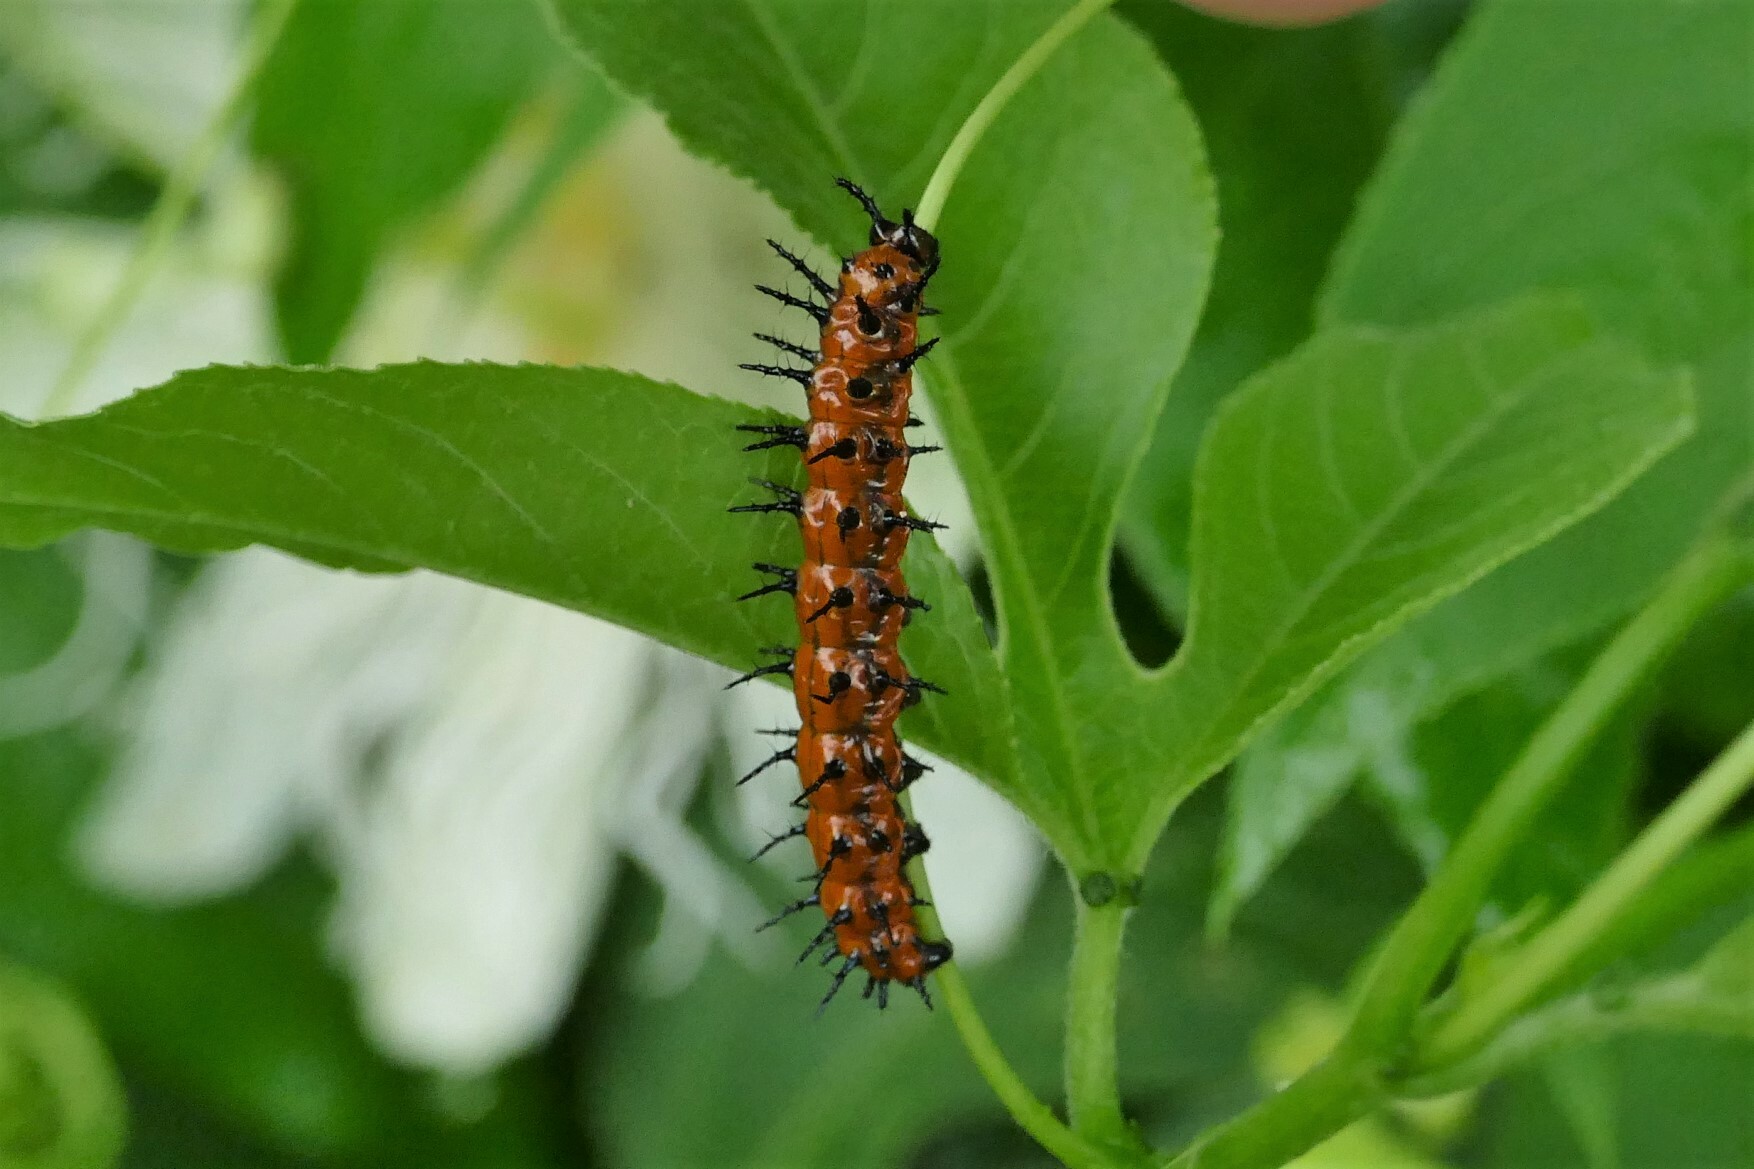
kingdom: Animalia
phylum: Arthropoda
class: Insecta
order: Lepidoptera
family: Nymphalidae
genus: Dione
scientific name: Dione vanillae
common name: Gulf fritillary
